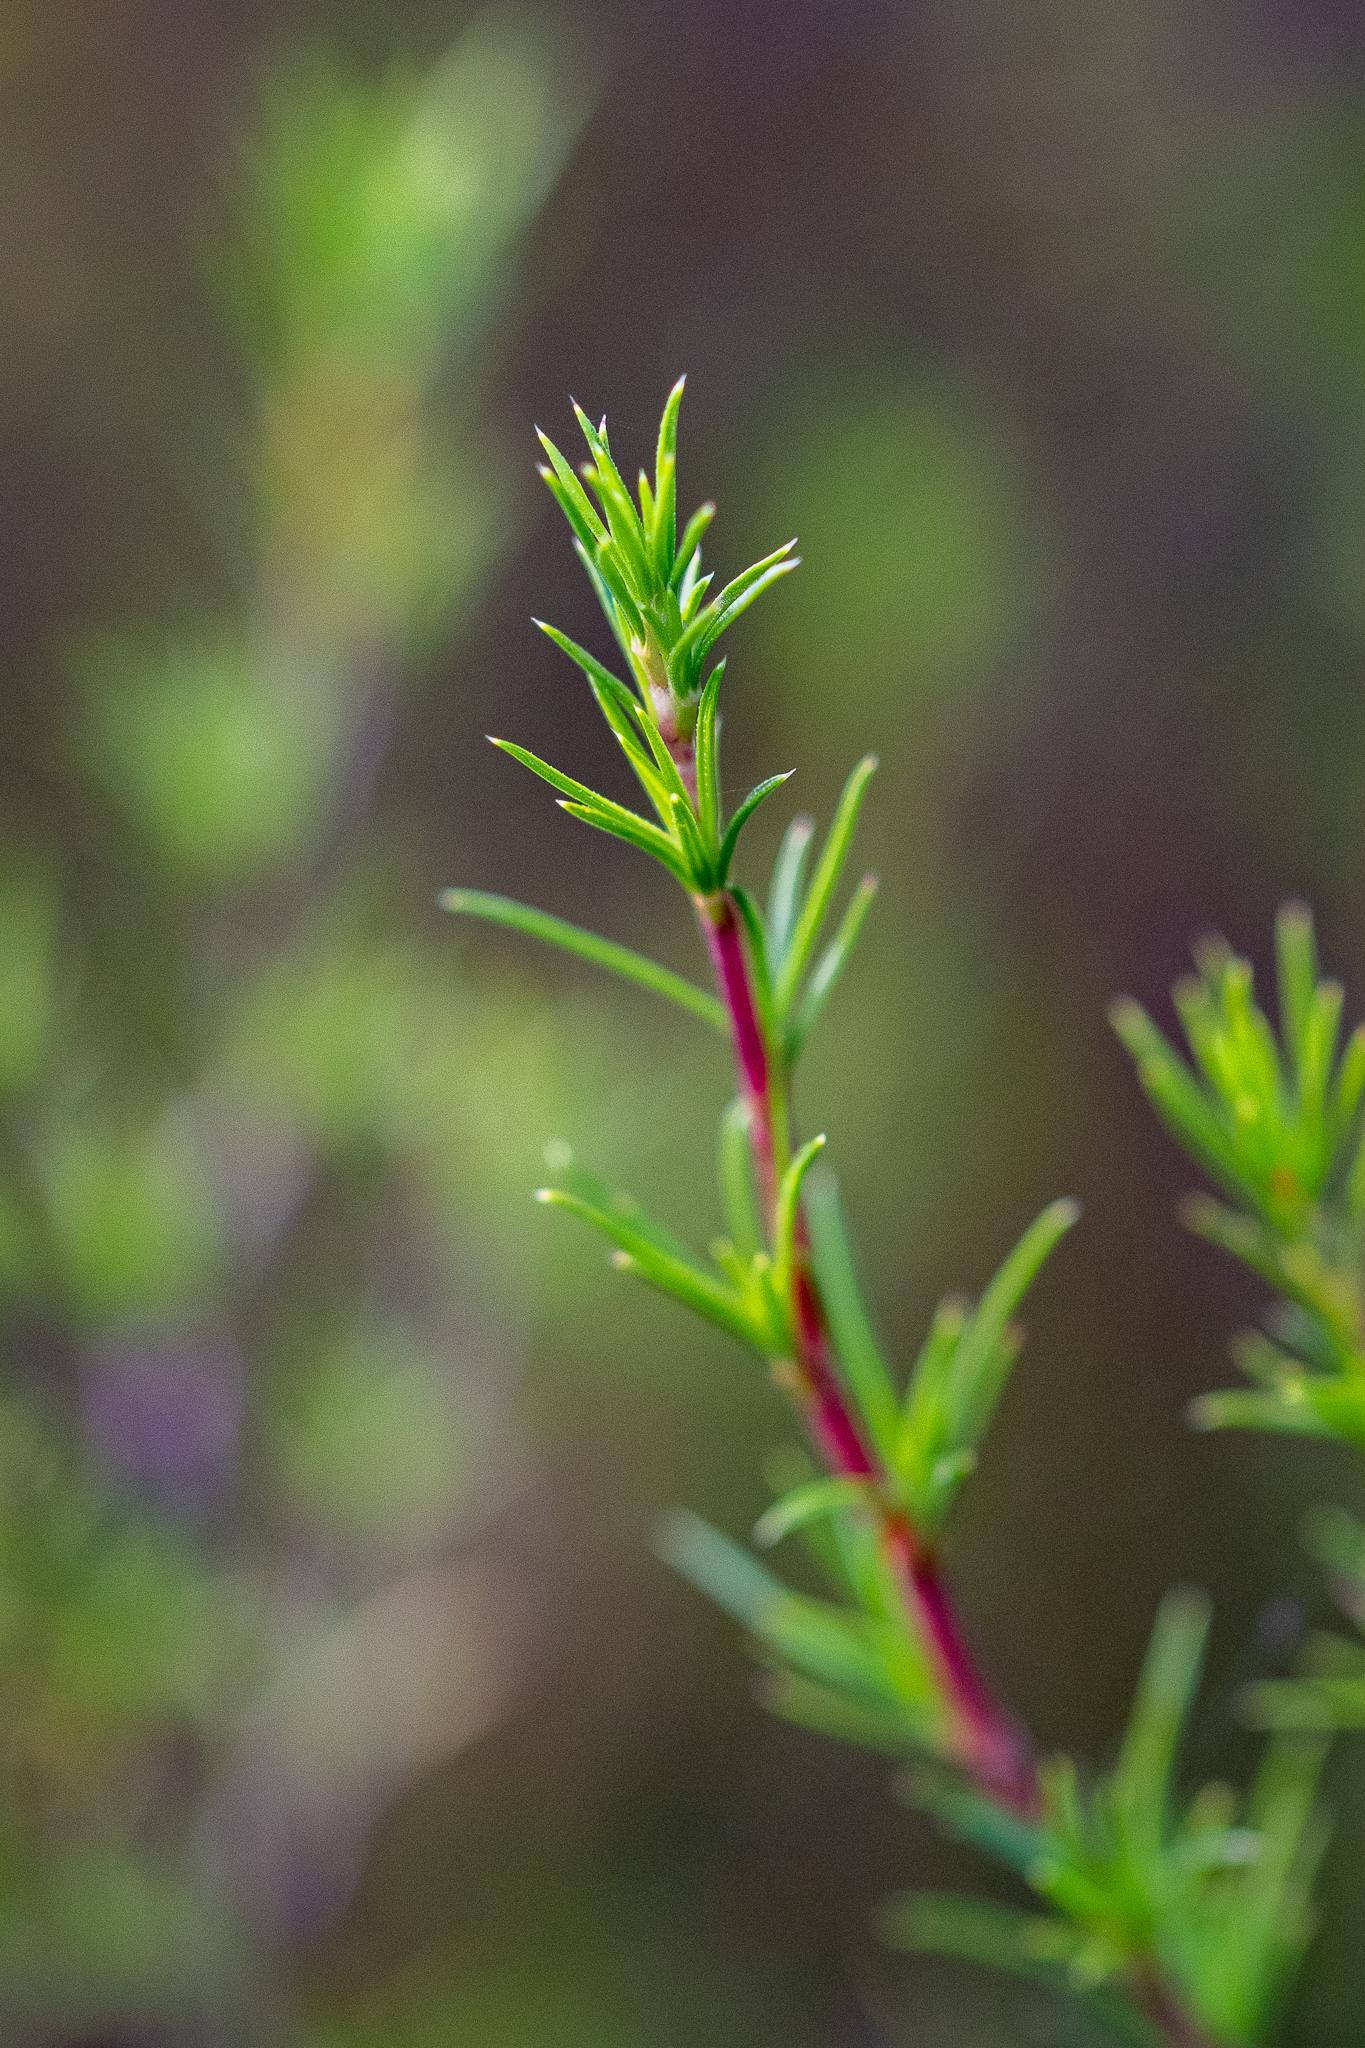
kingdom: Plantae
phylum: Tracheophyta
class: Magnoliopsida
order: Rosales
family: Rosaceae
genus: Cliffortia
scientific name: Cliffortia atrata
